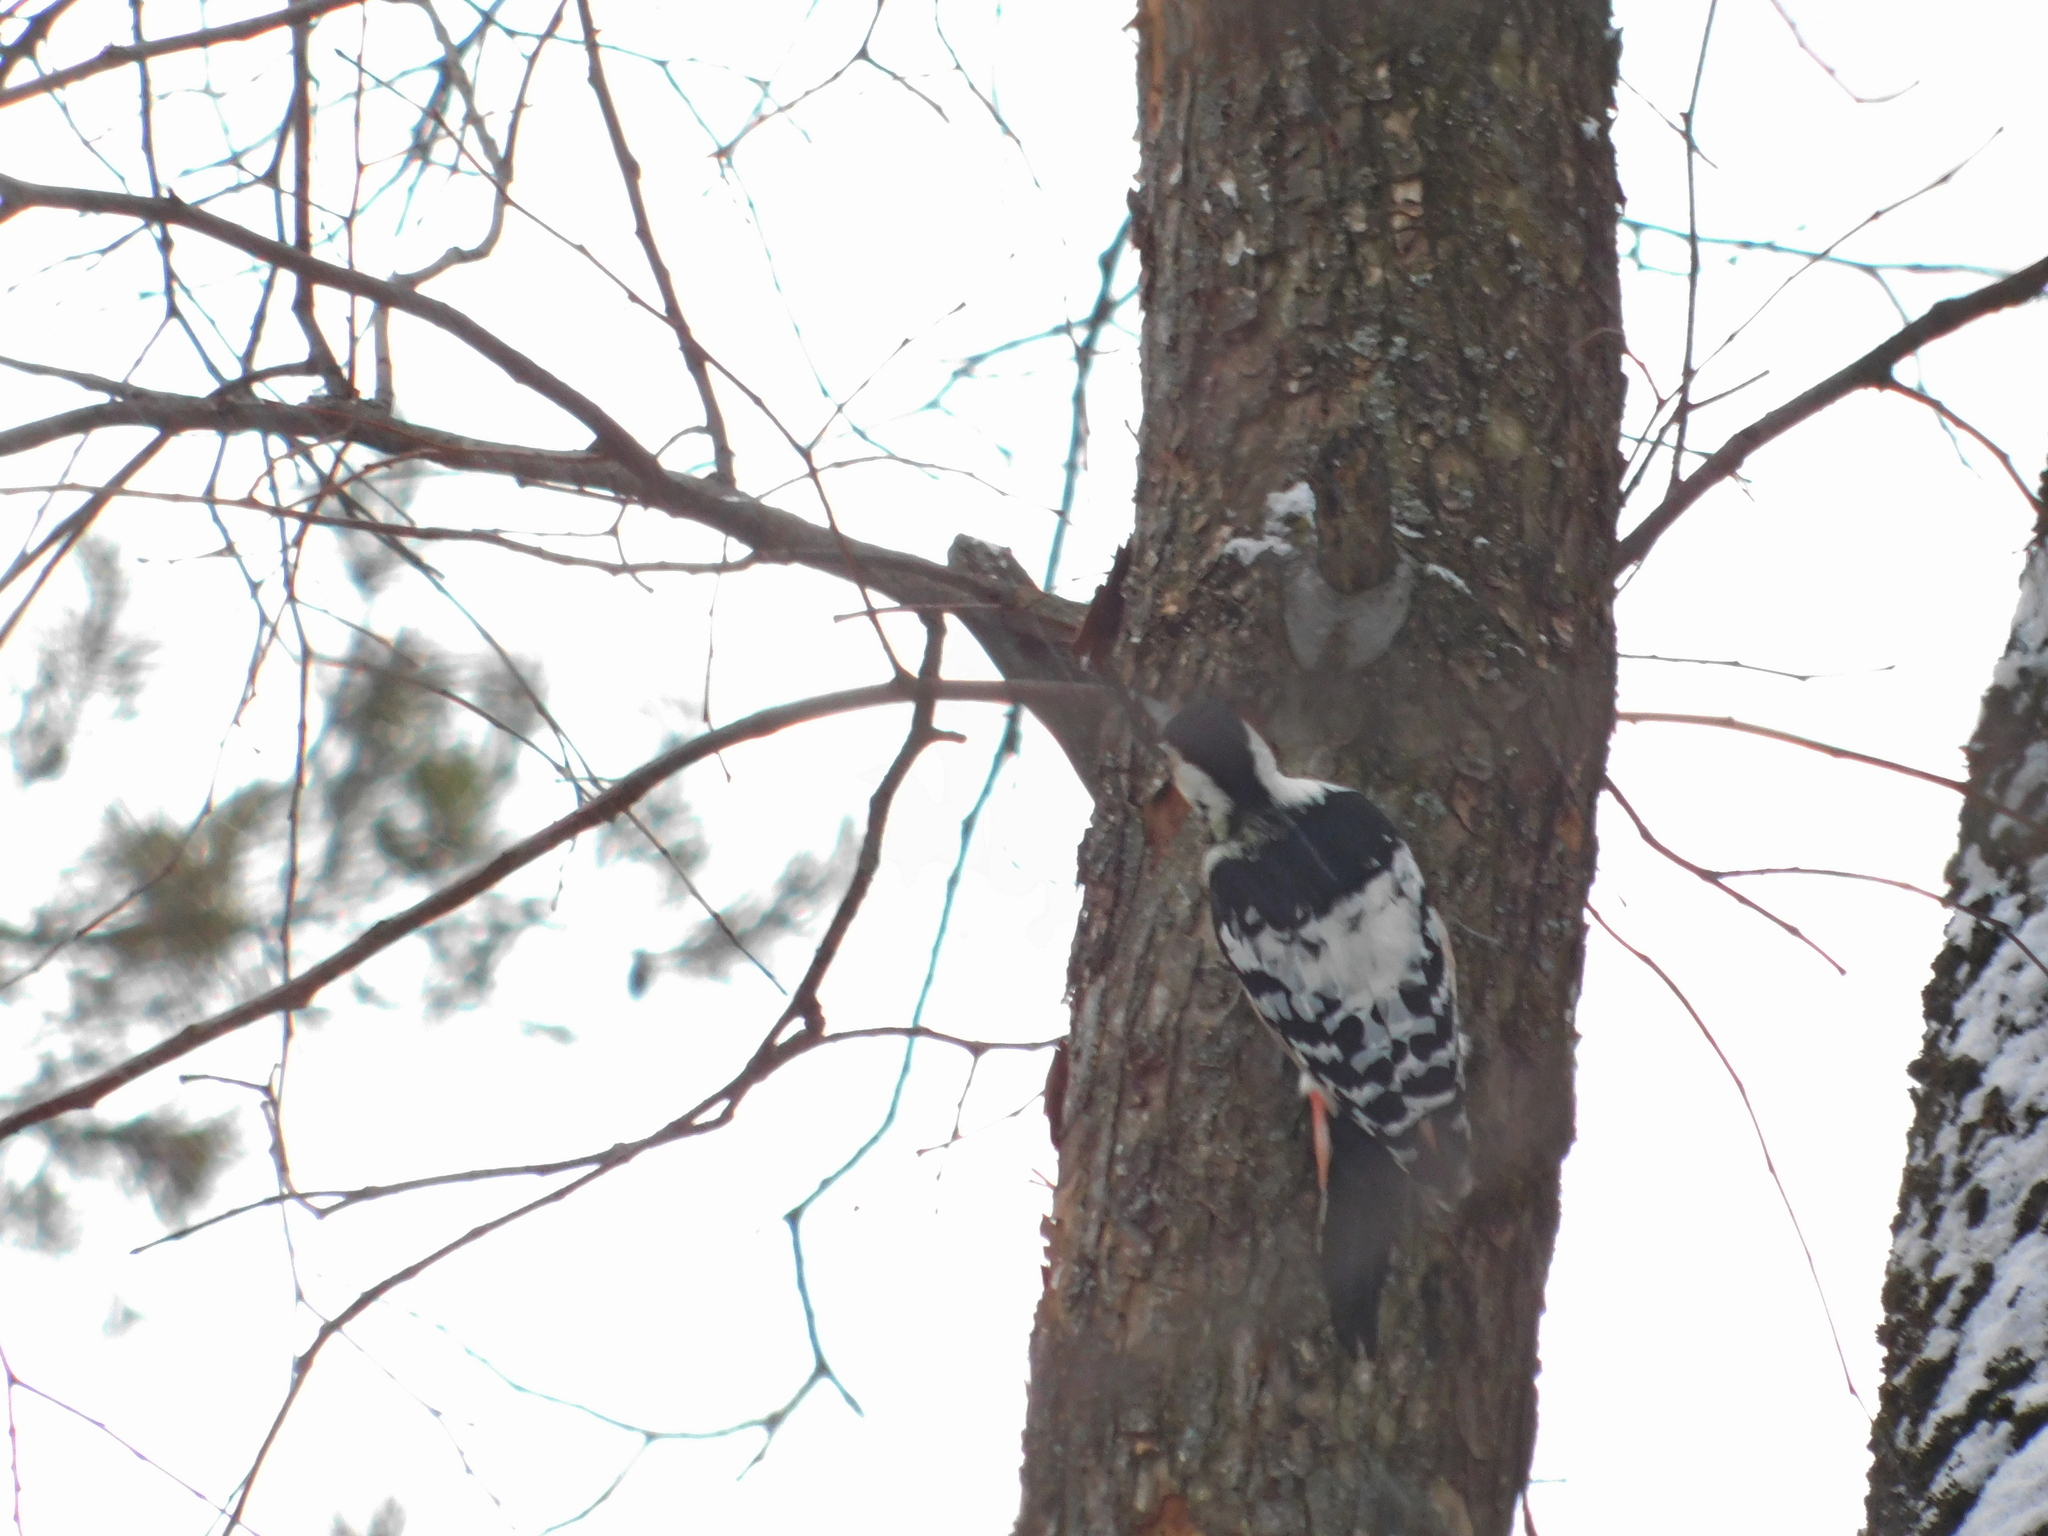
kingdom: Animalia
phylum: Chordata
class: Aves
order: Piciformes
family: Picidae
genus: Dendrocopos
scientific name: Dendrocopos leucotos
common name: White-backed woodpecker
